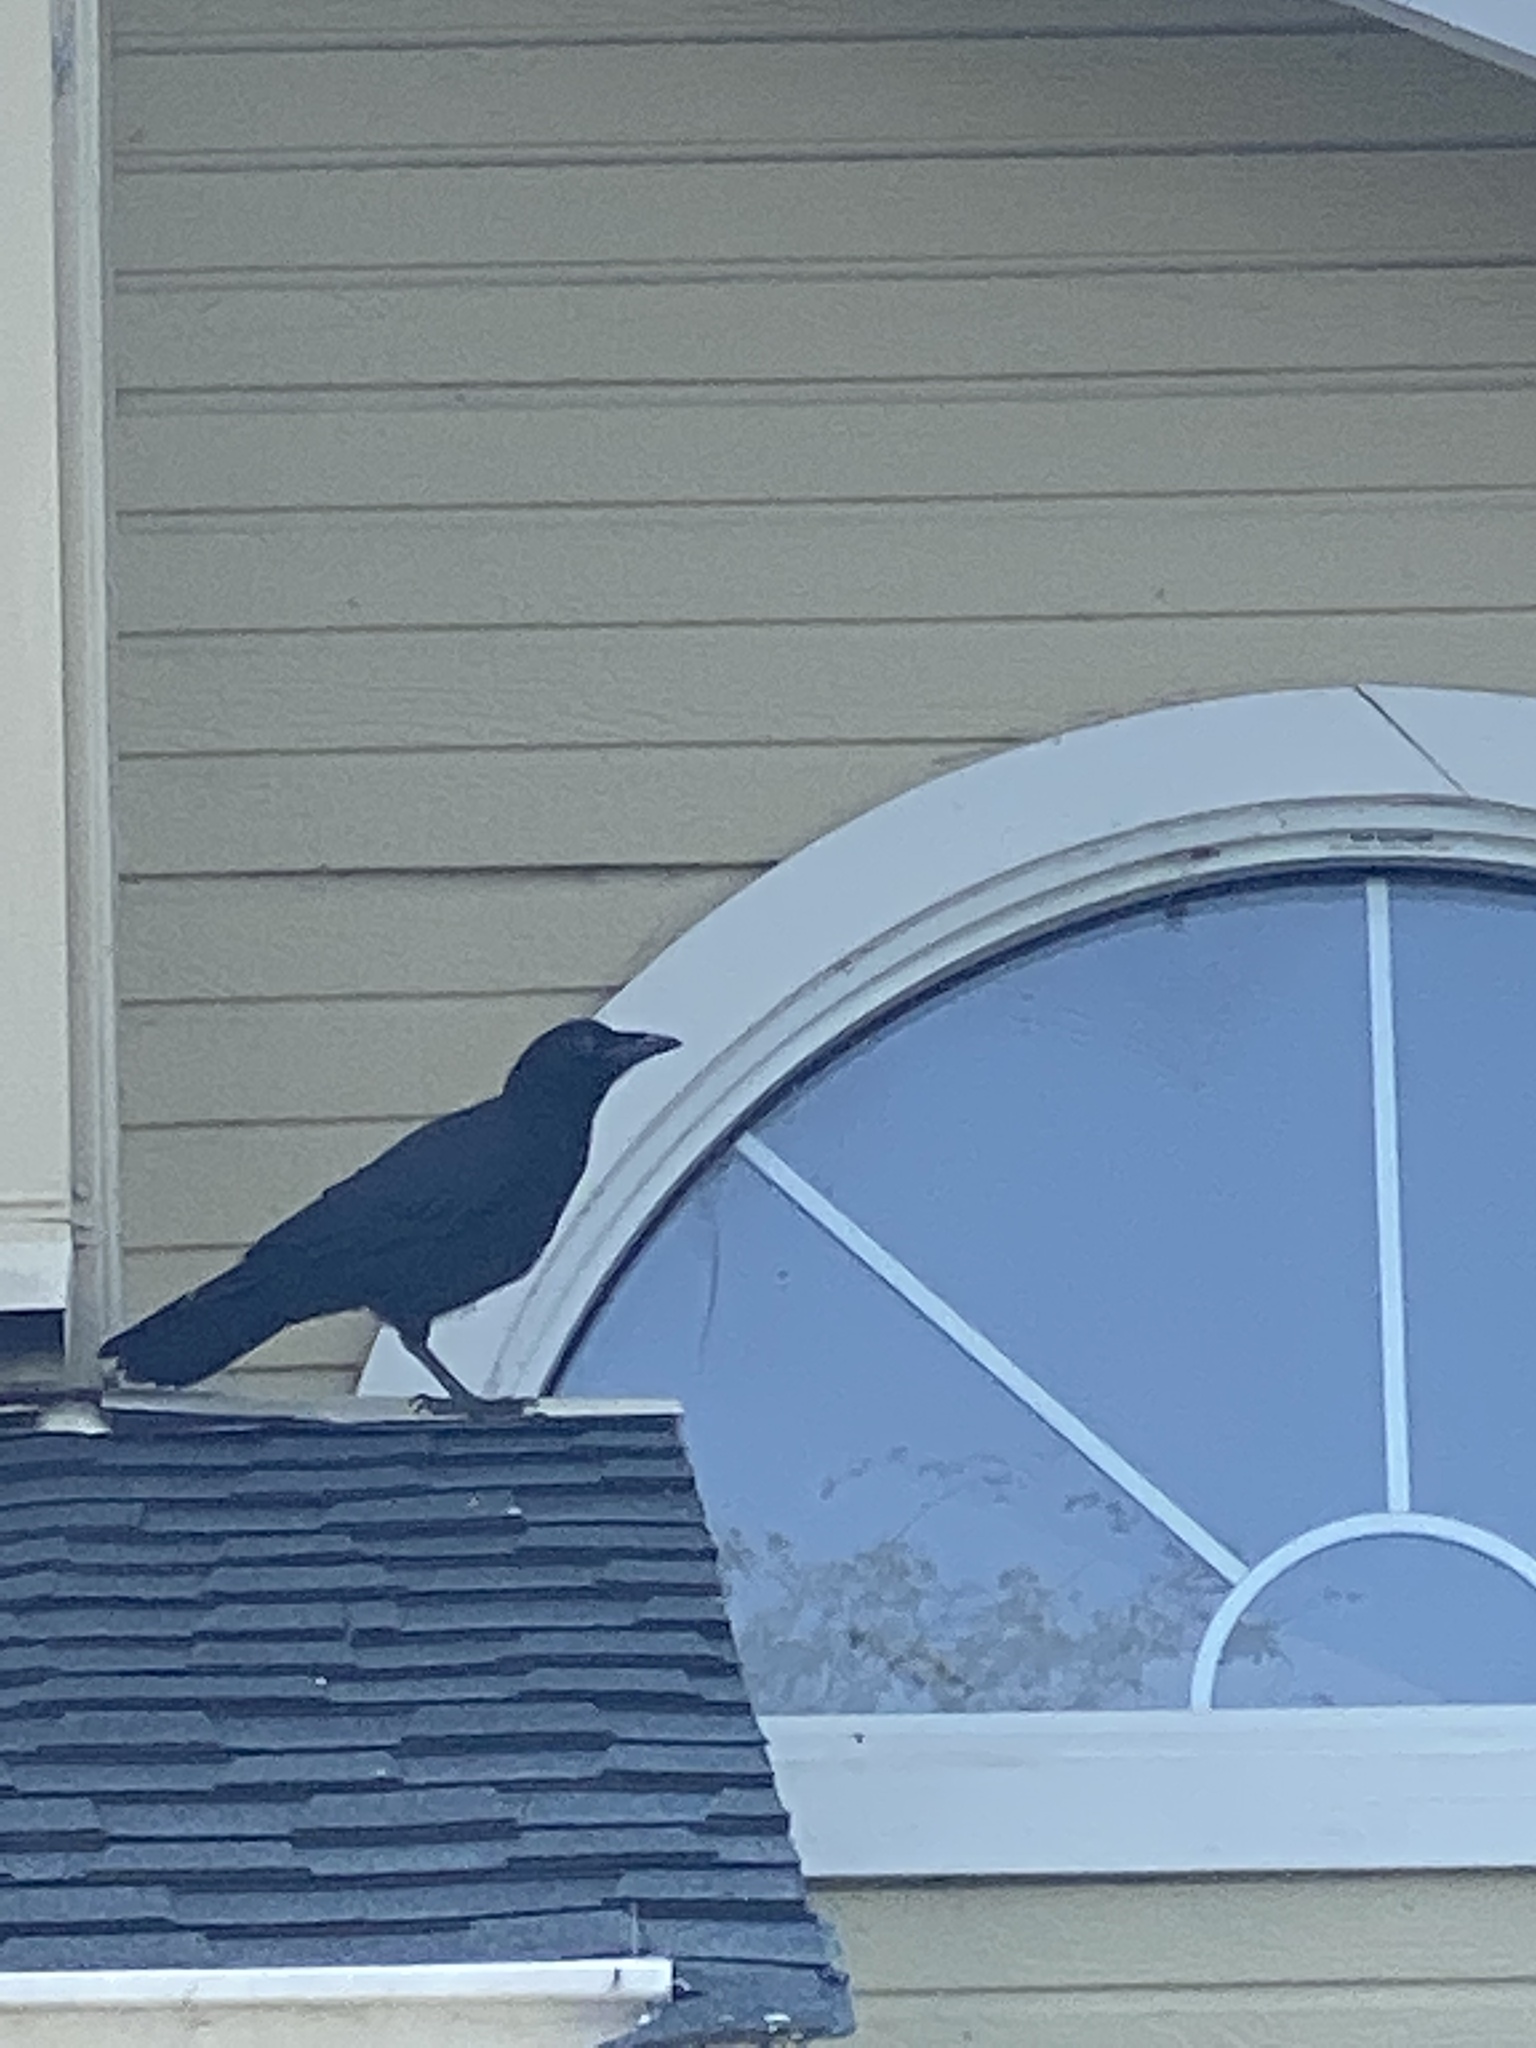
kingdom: Animalia
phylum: Chordata
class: Aves
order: Passeriformes
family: Corvidae
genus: Corvus
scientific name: Corvus brachyrhynchos
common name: American crow
